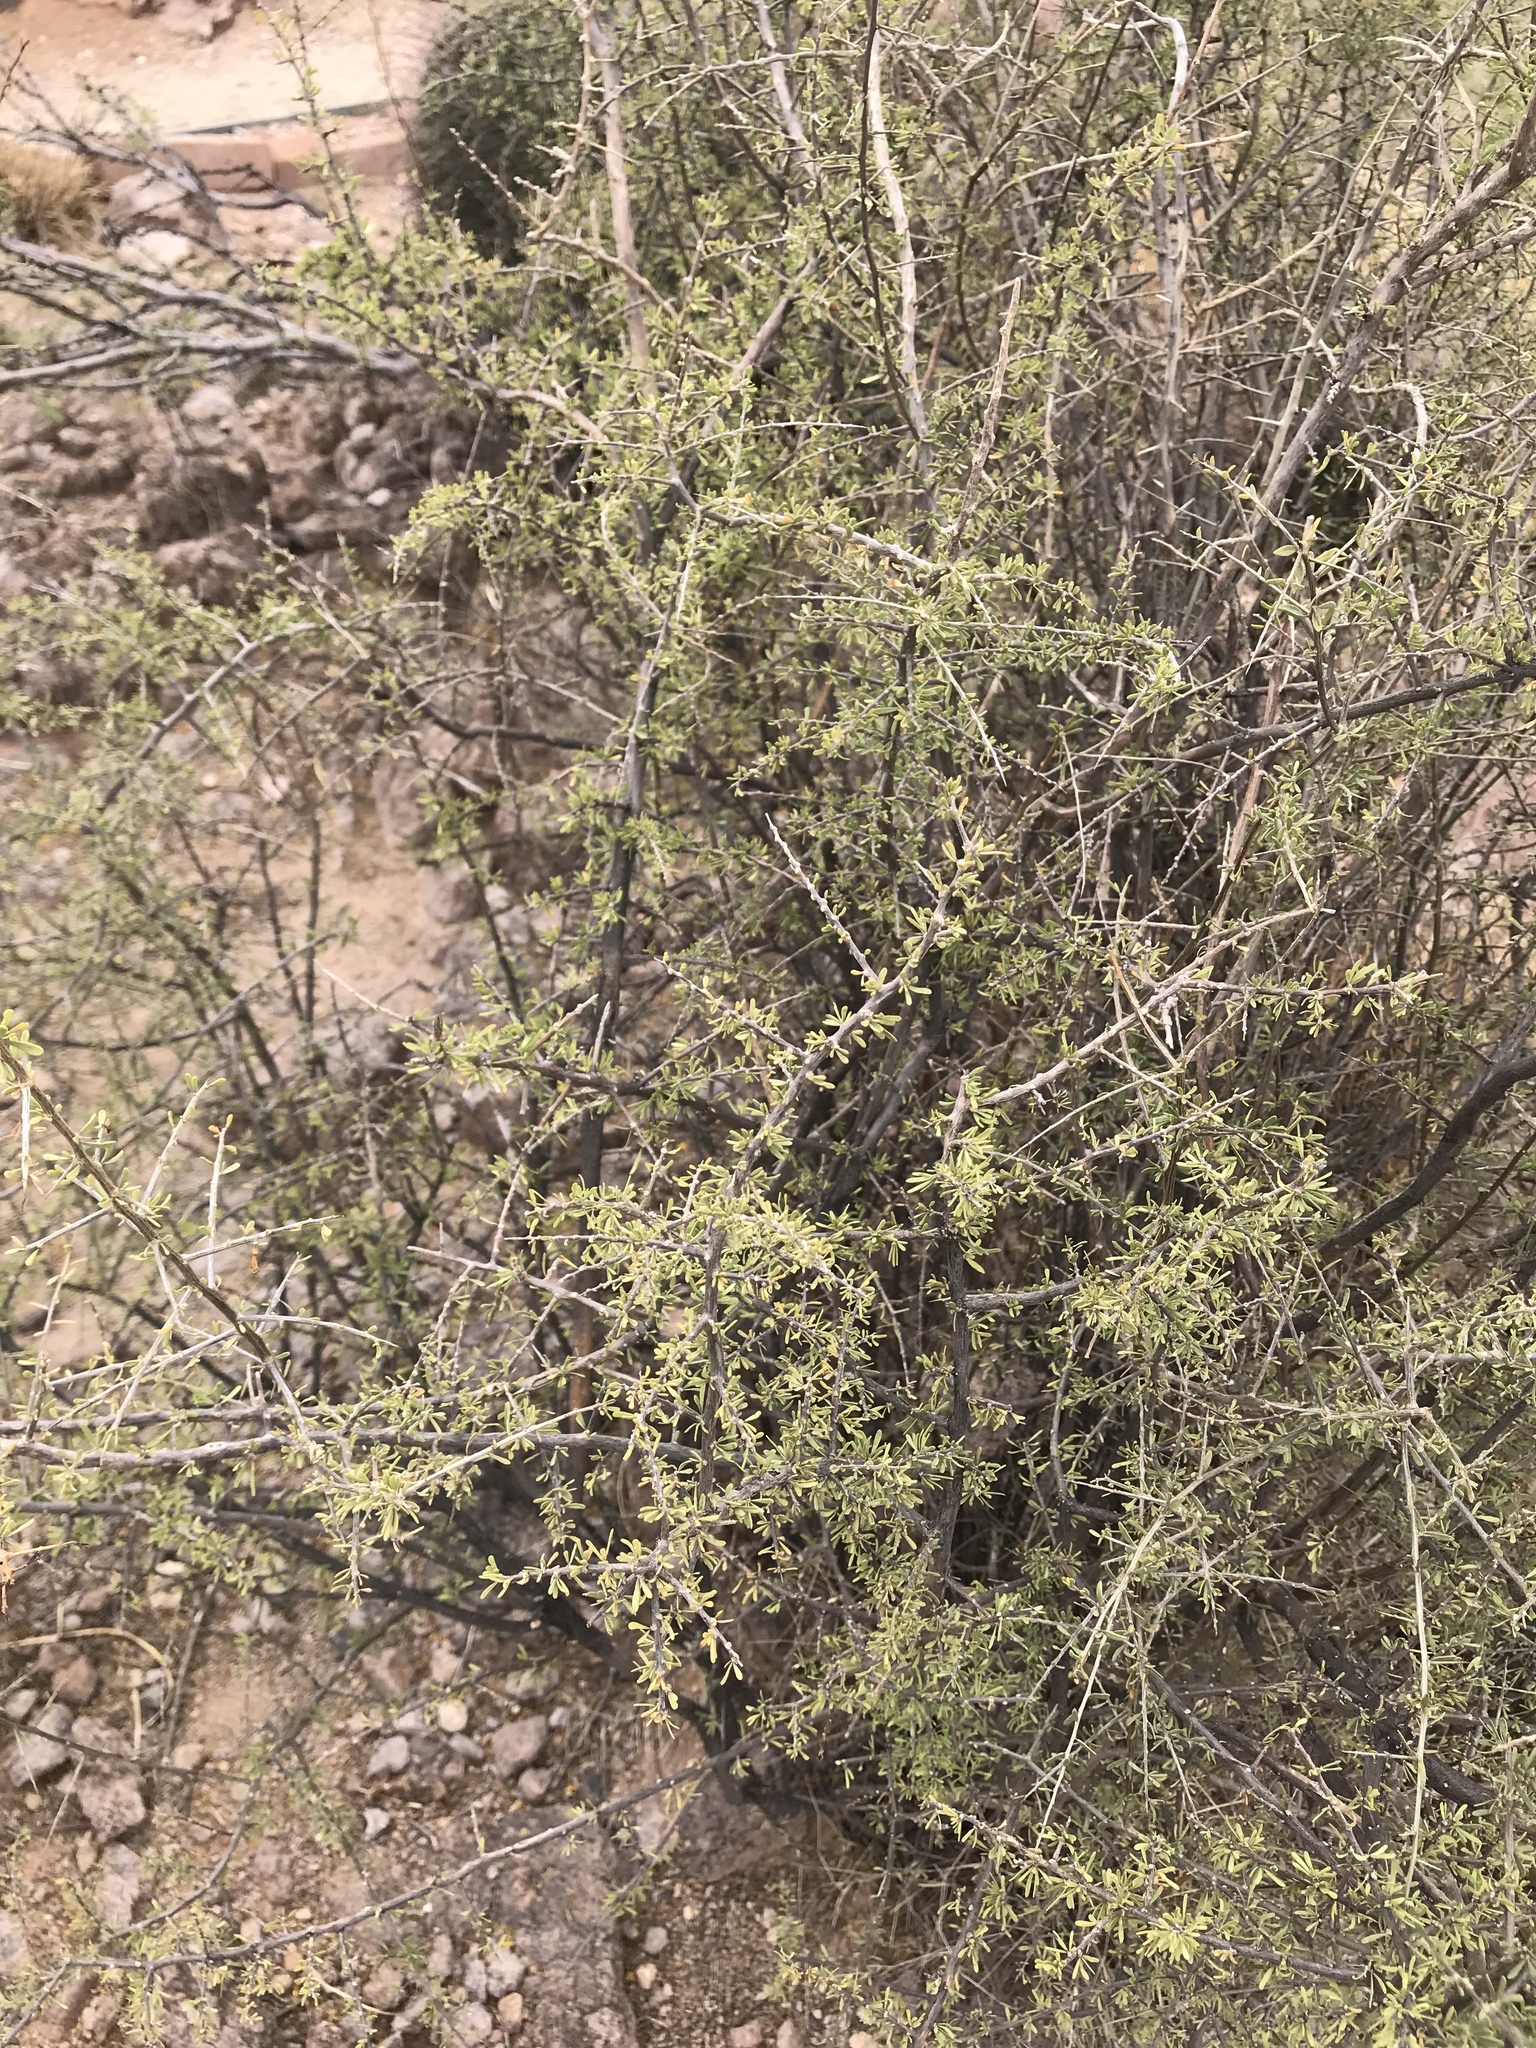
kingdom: Plantae
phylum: Tracheophyta
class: Magnoliopsida
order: Solanales
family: Solanaceae
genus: Lycium
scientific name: Lycium berlandieri
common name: Berlandier wolfberry
